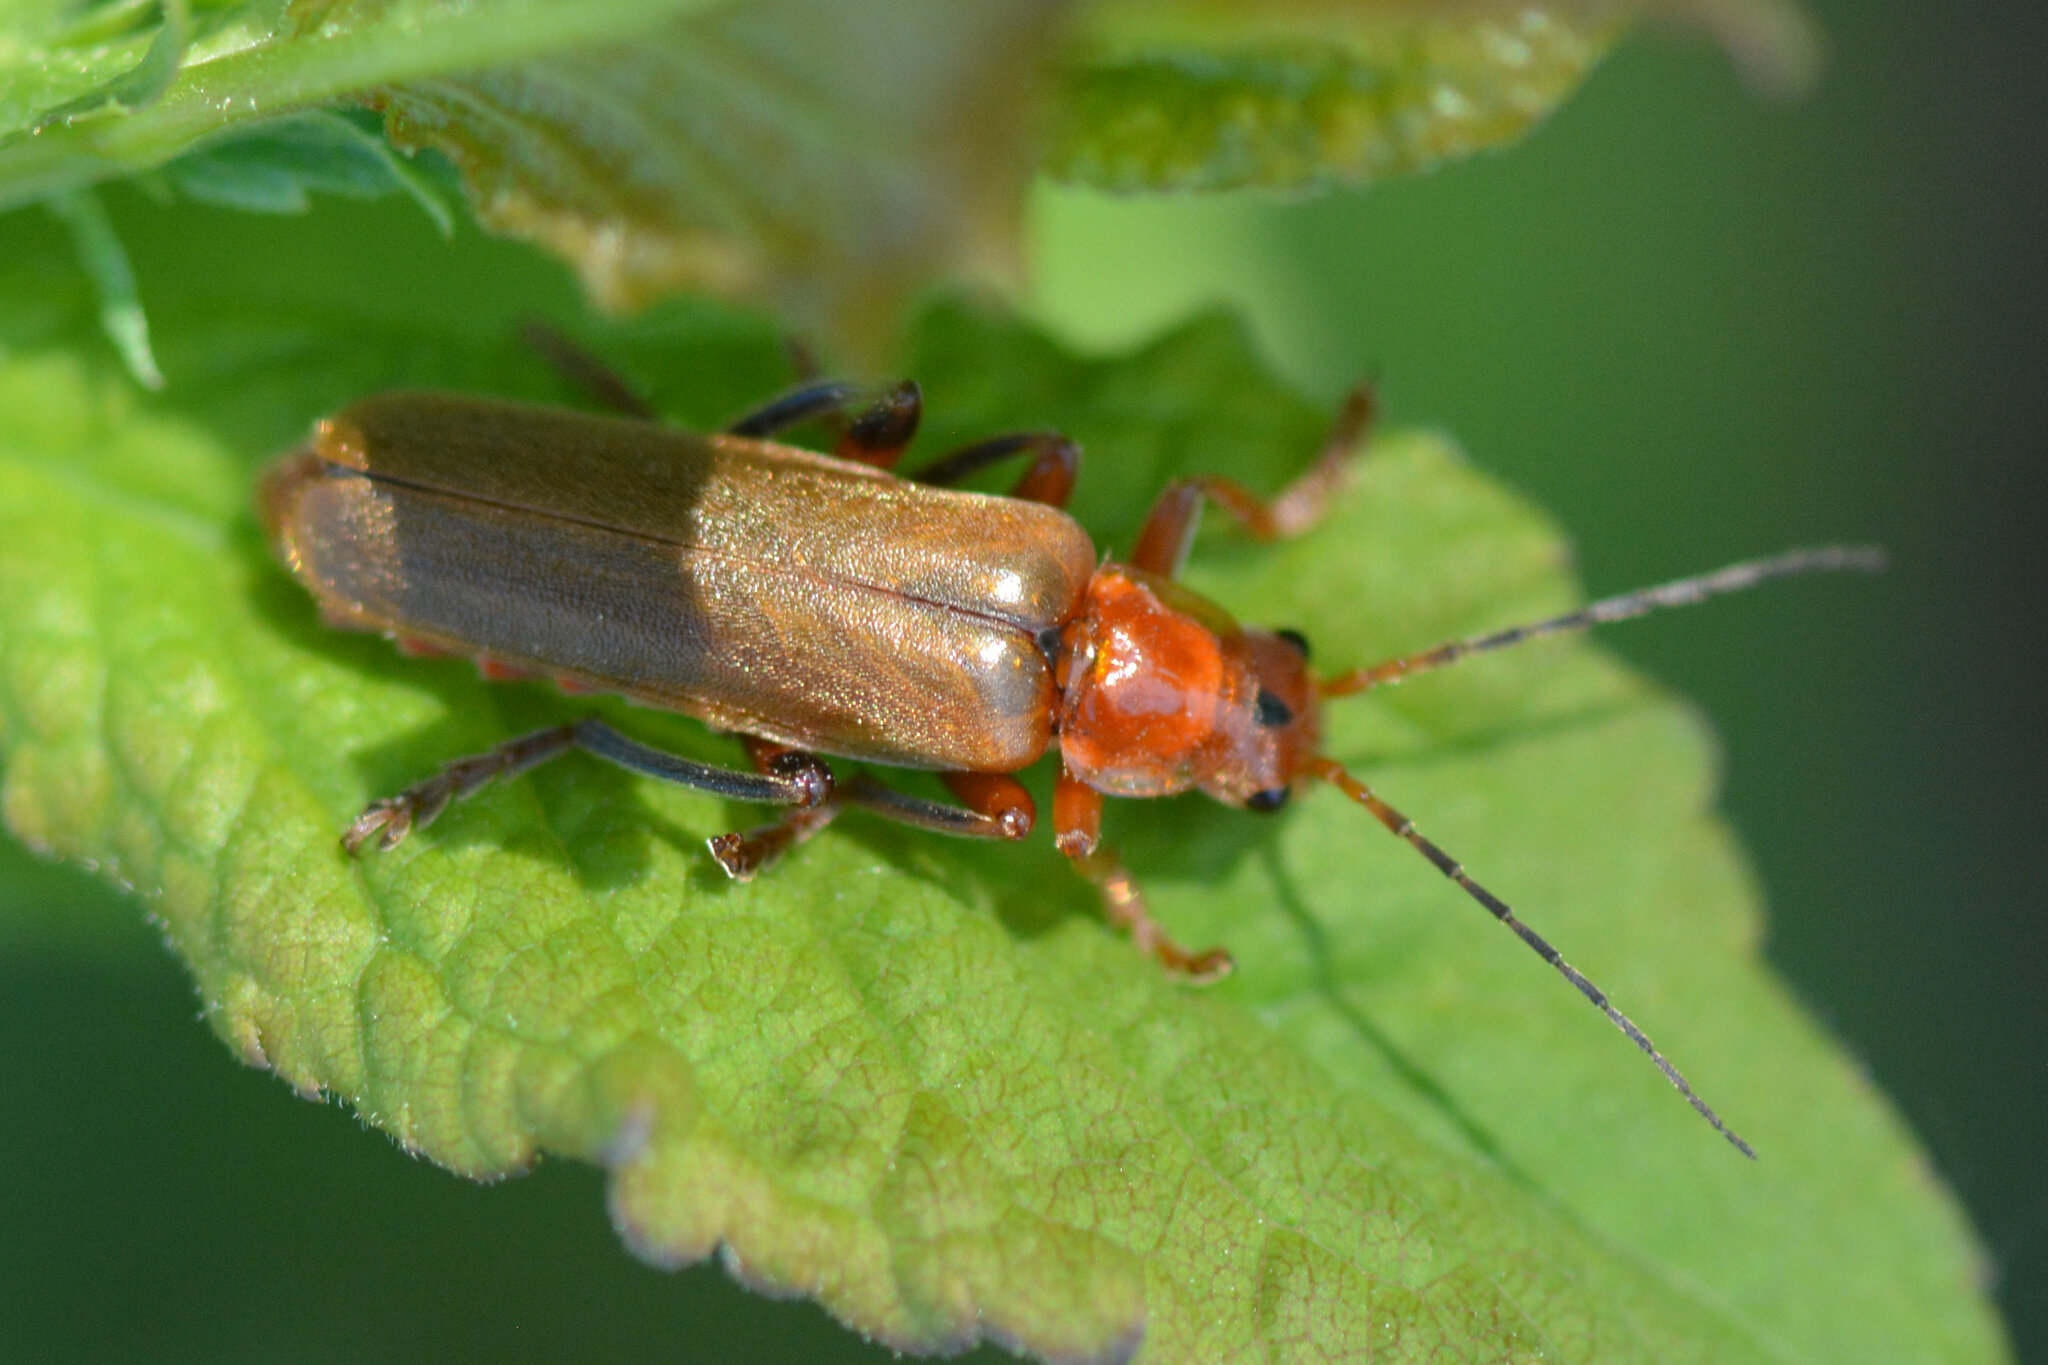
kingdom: Animalia
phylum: Arthropoda
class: Insecta
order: Coleoptera
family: Cantharidae
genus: Cantharis
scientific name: Cantharis livida
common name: Livid soldier beetle
